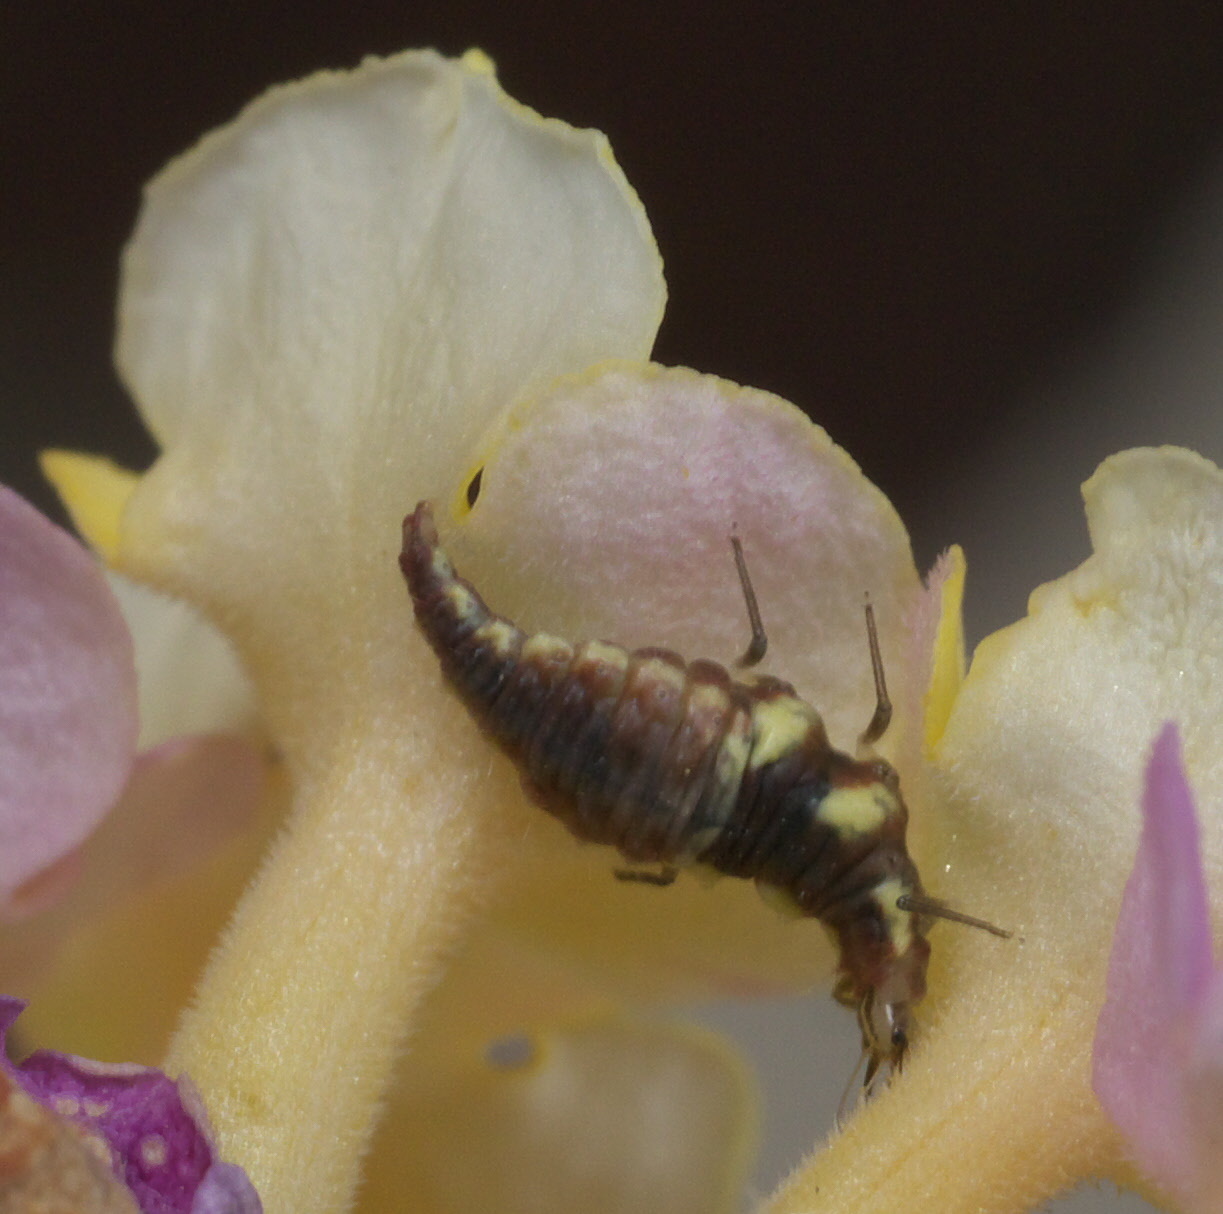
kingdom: Animalia
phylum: Arthropoda
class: Insecta
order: Neuroptera
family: Chrysopidae
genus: Chrysoperla
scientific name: Chrysoperla rufilabris
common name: Red-lipped green lacewing
